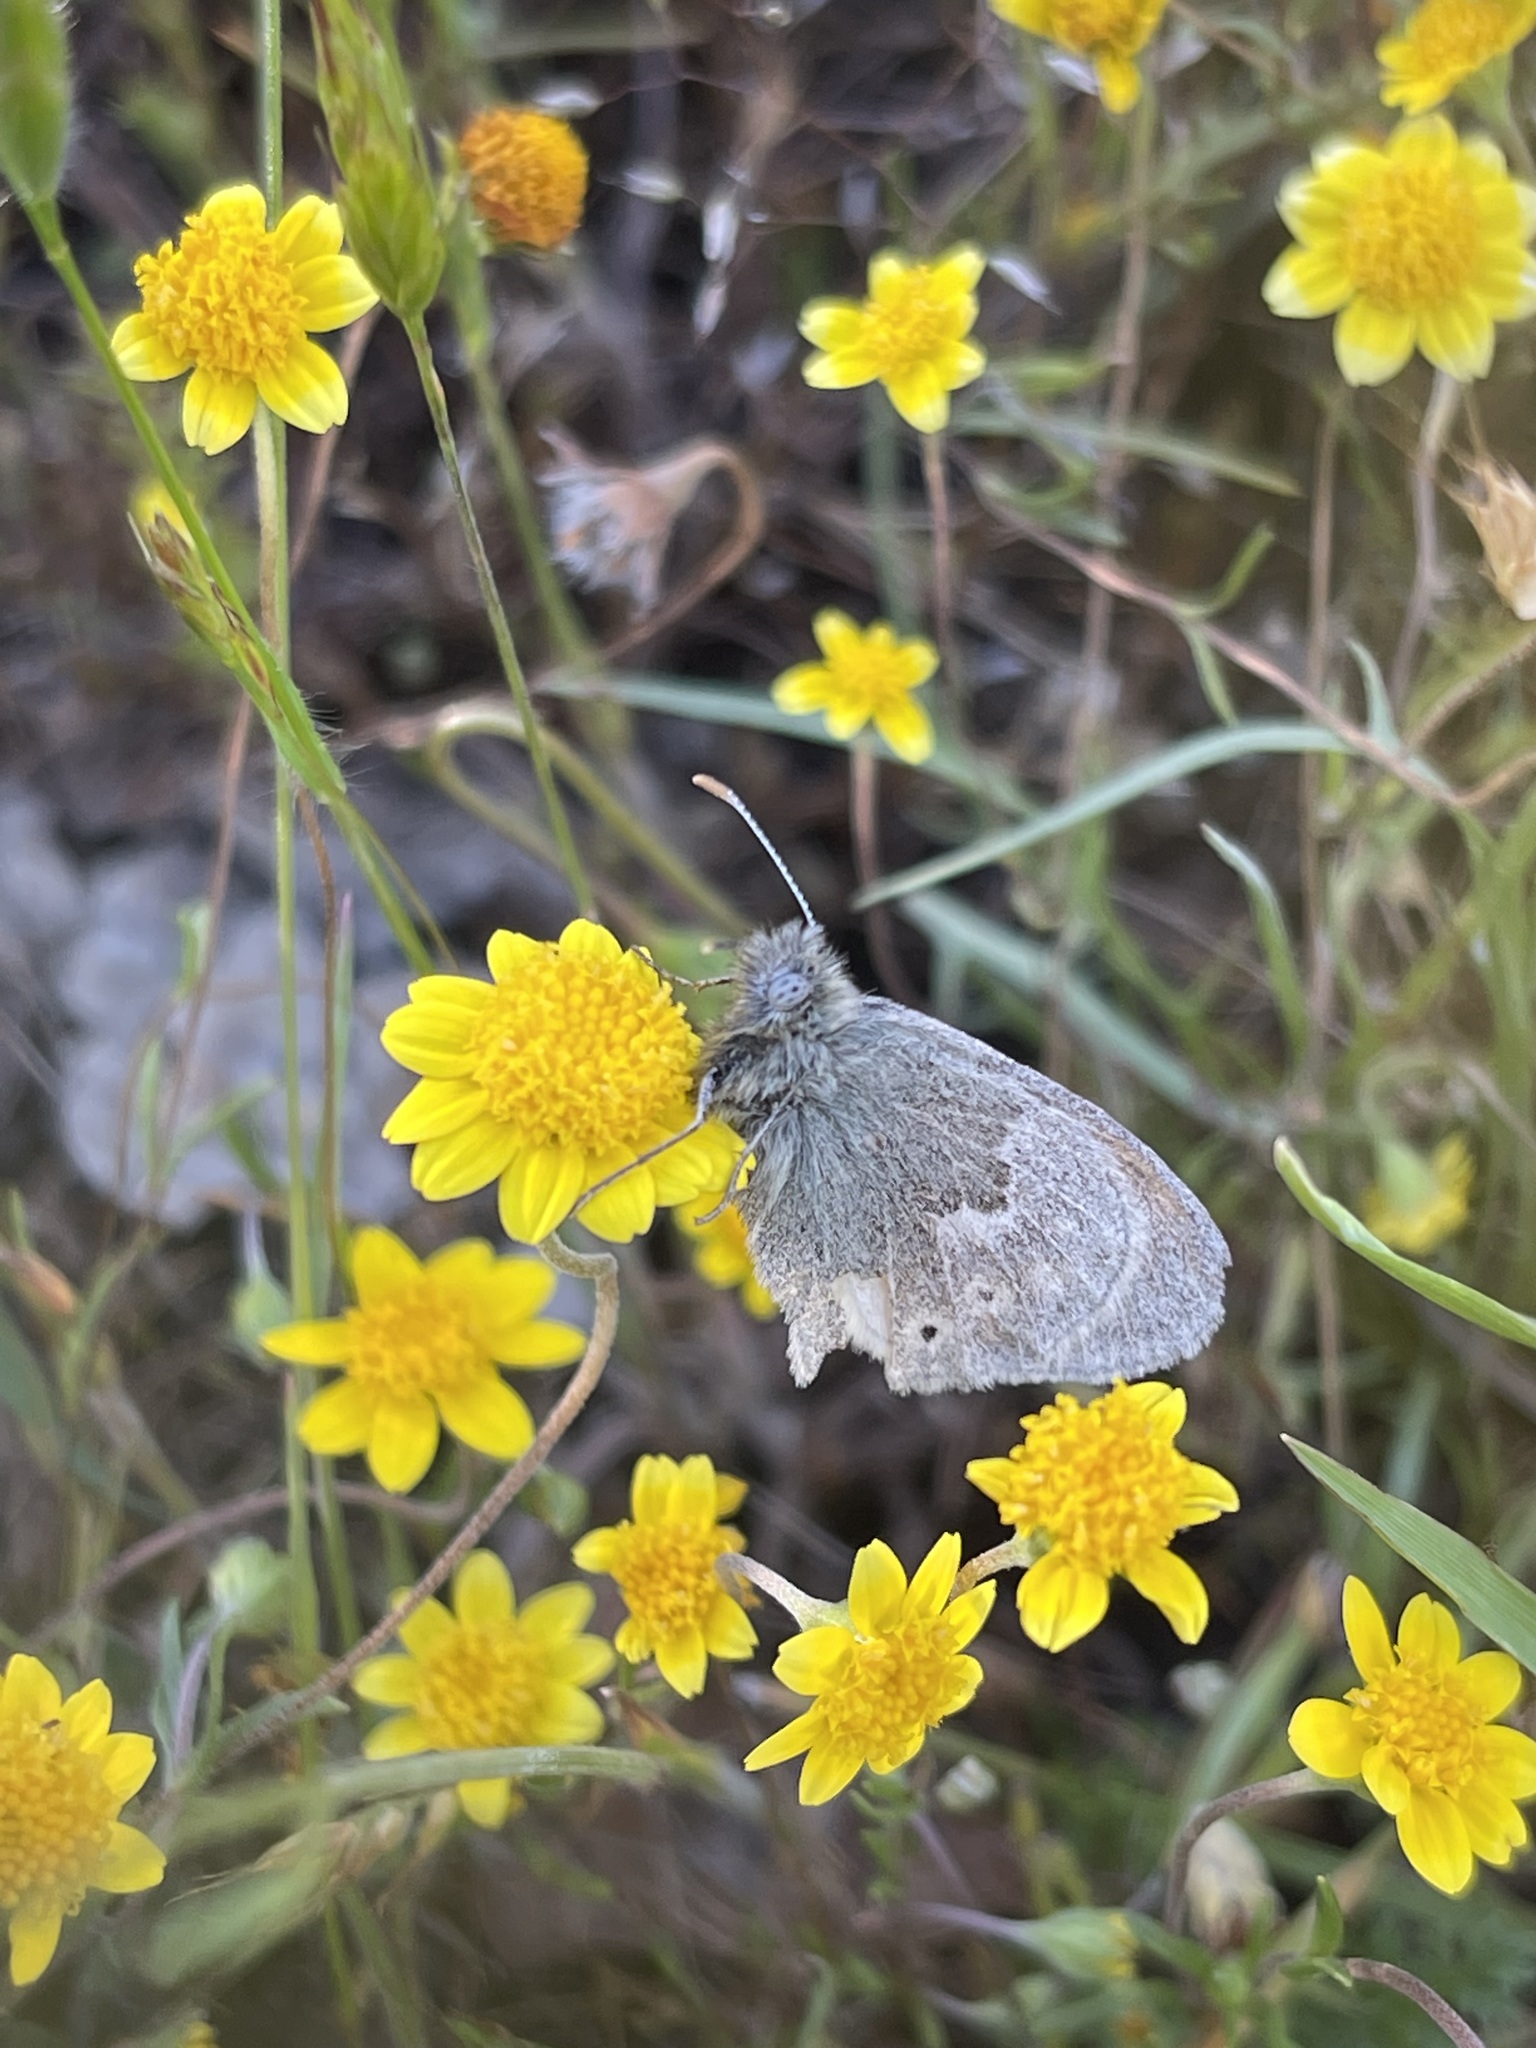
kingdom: Animalia
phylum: Arthropoda
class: Insecta
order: Lepidoptera
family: Nymphalidae
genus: Coenonympha
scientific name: Coenonympha california
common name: Common ringlet
